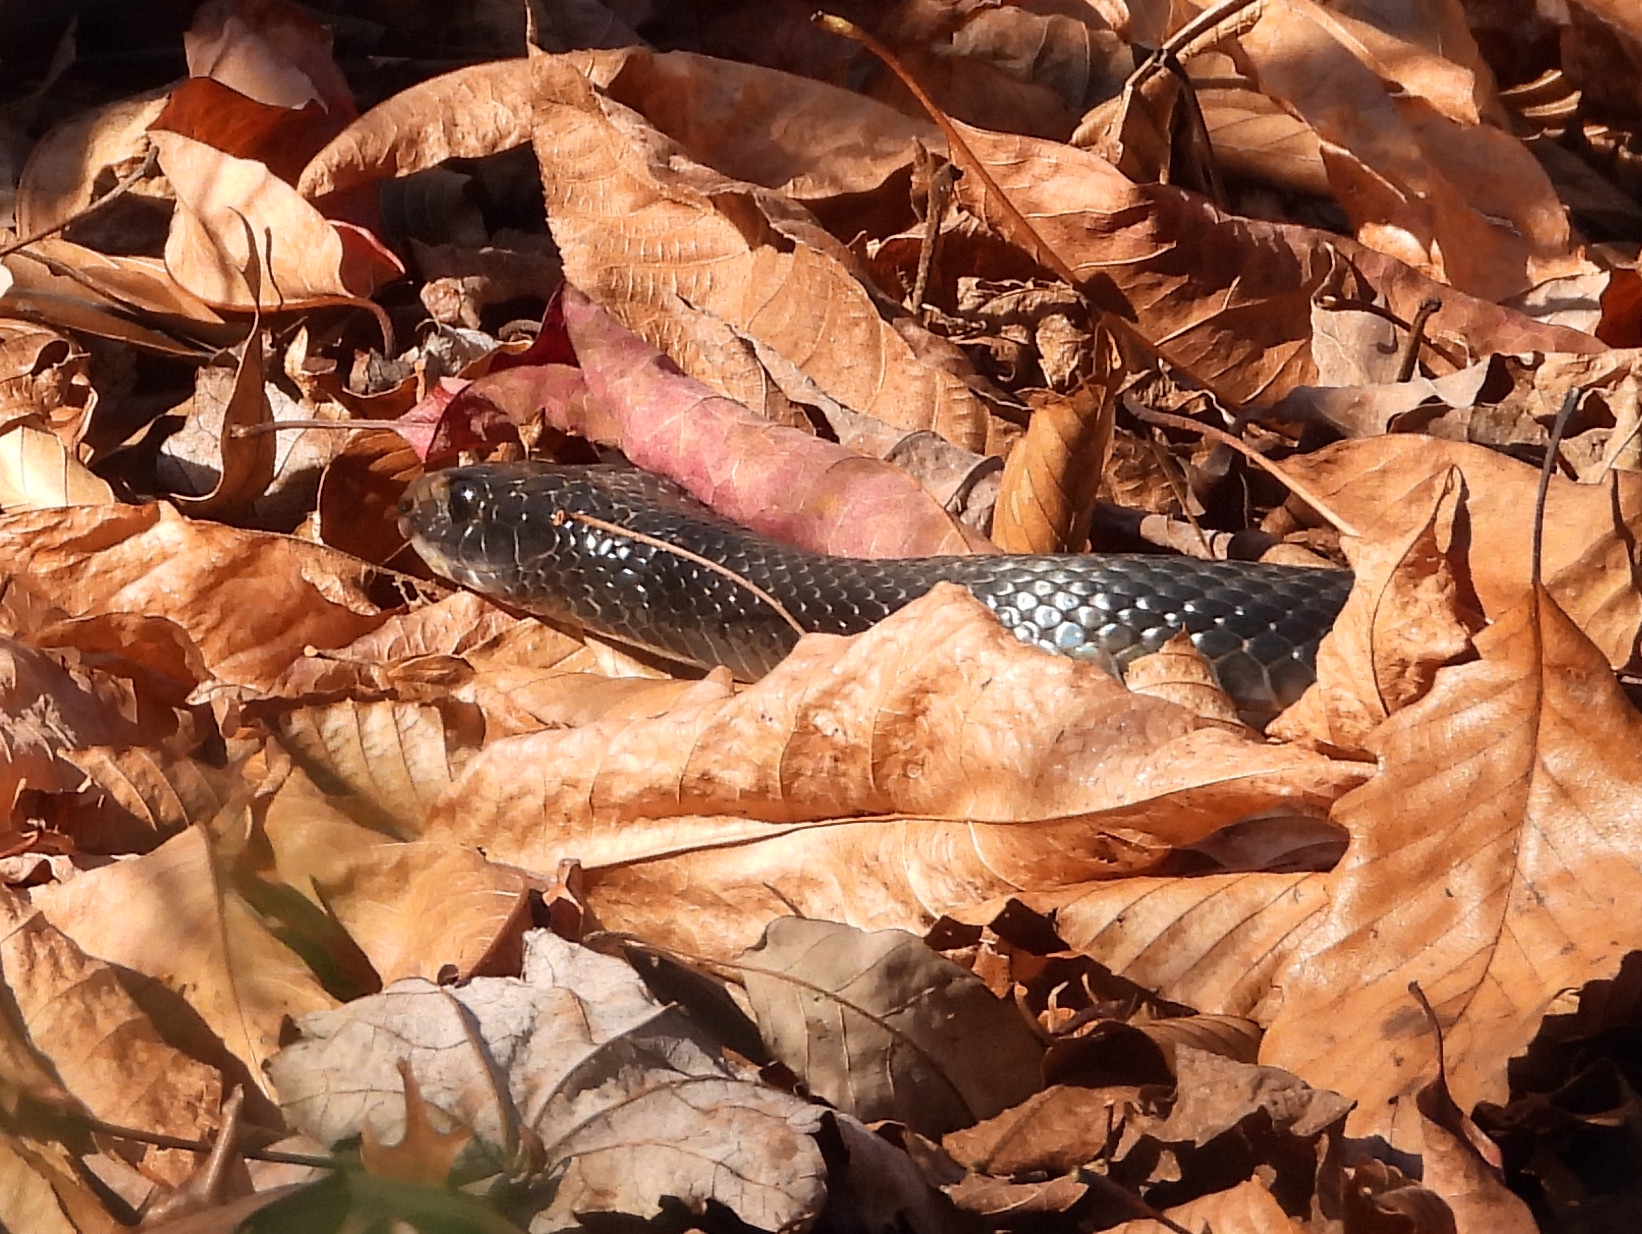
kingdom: Animalia
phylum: Chordata
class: Squamata
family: Colubridae
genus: Coluber
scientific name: Coluber constrictor
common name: Eastern racer
